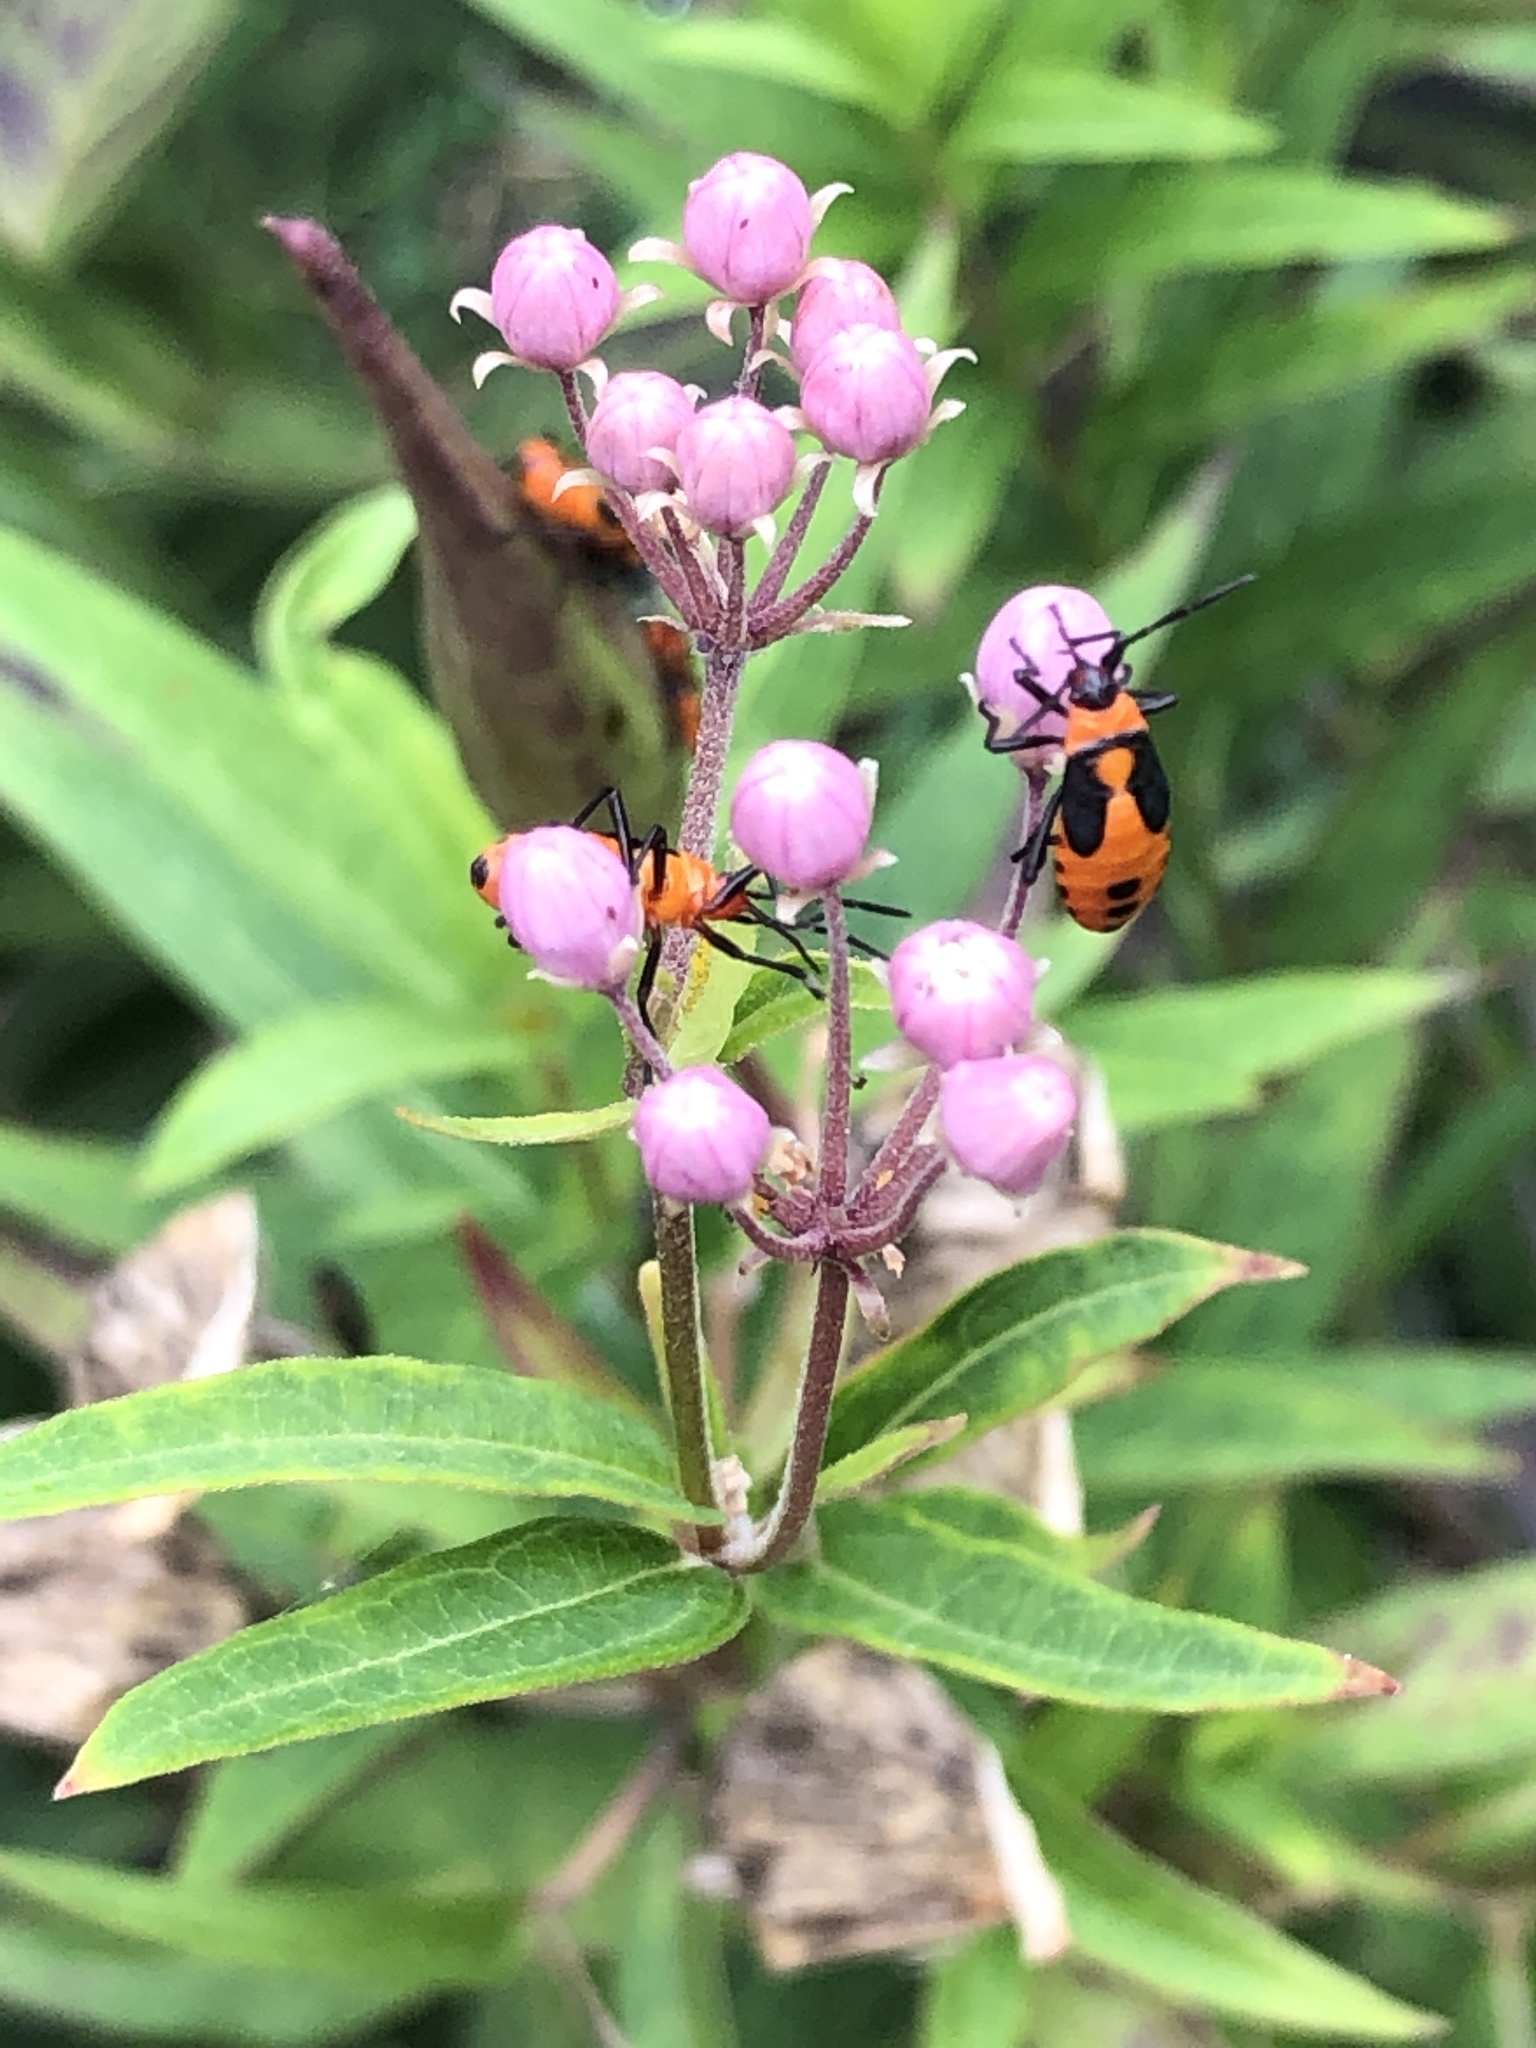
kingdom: Animalia
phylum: Arthropoda
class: Insecta
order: Hemiptera
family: Lygaeidae
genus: Oncopeltus
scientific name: Oncopeltus fasciatus
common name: Large milkweed bug
